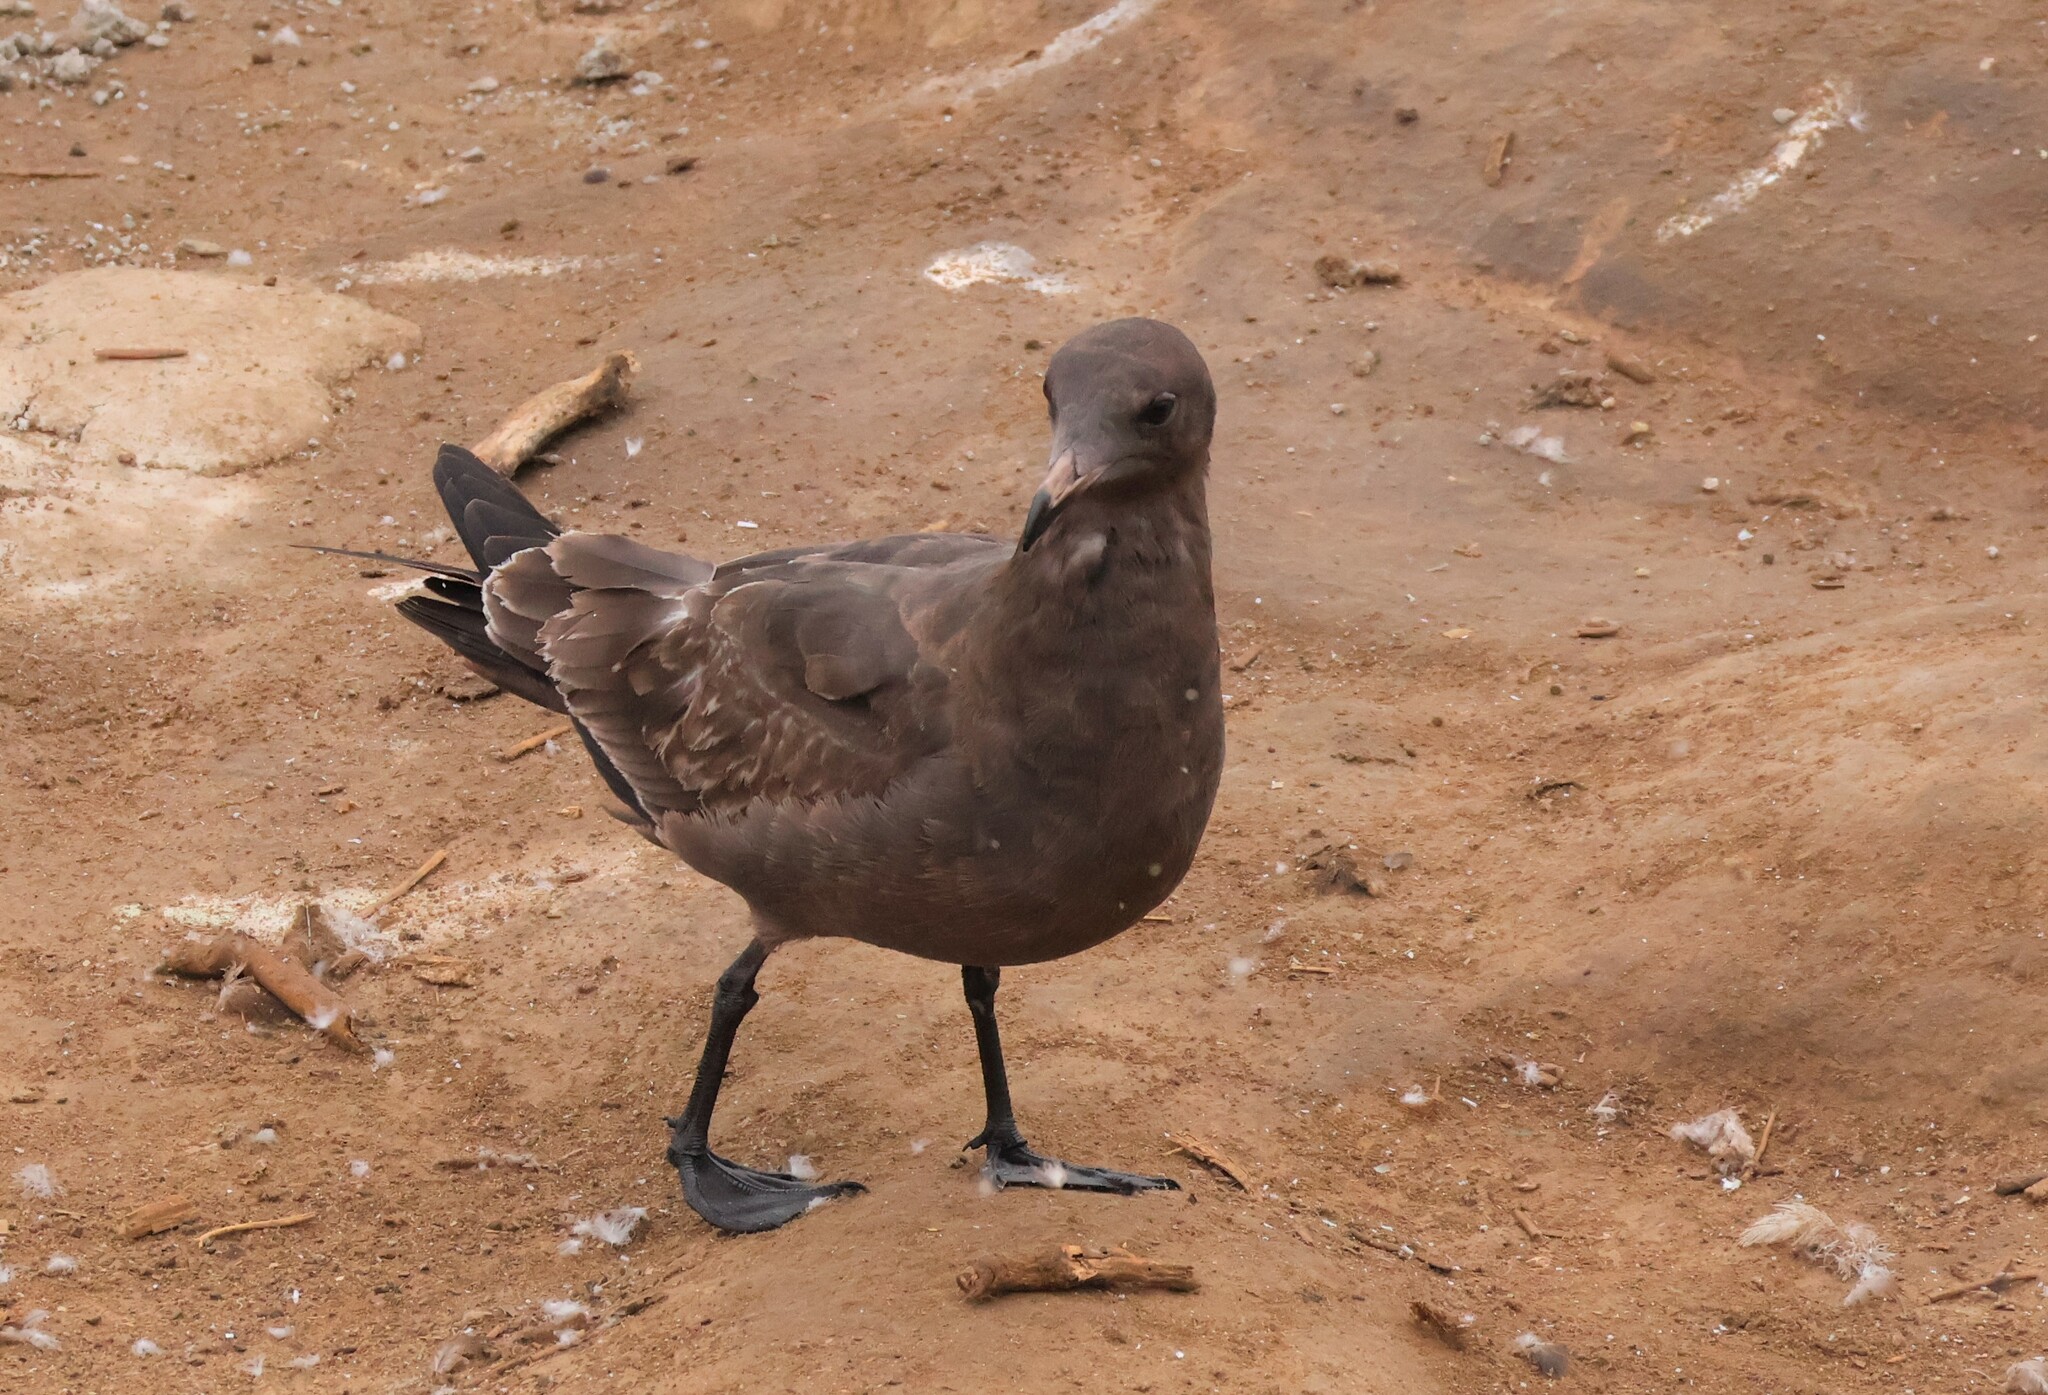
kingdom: Animalia
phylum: Chordata
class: Aves
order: Charadriiformes
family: Laridae
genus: Larus
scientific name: Larus heermanni
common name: Heermann's gull
